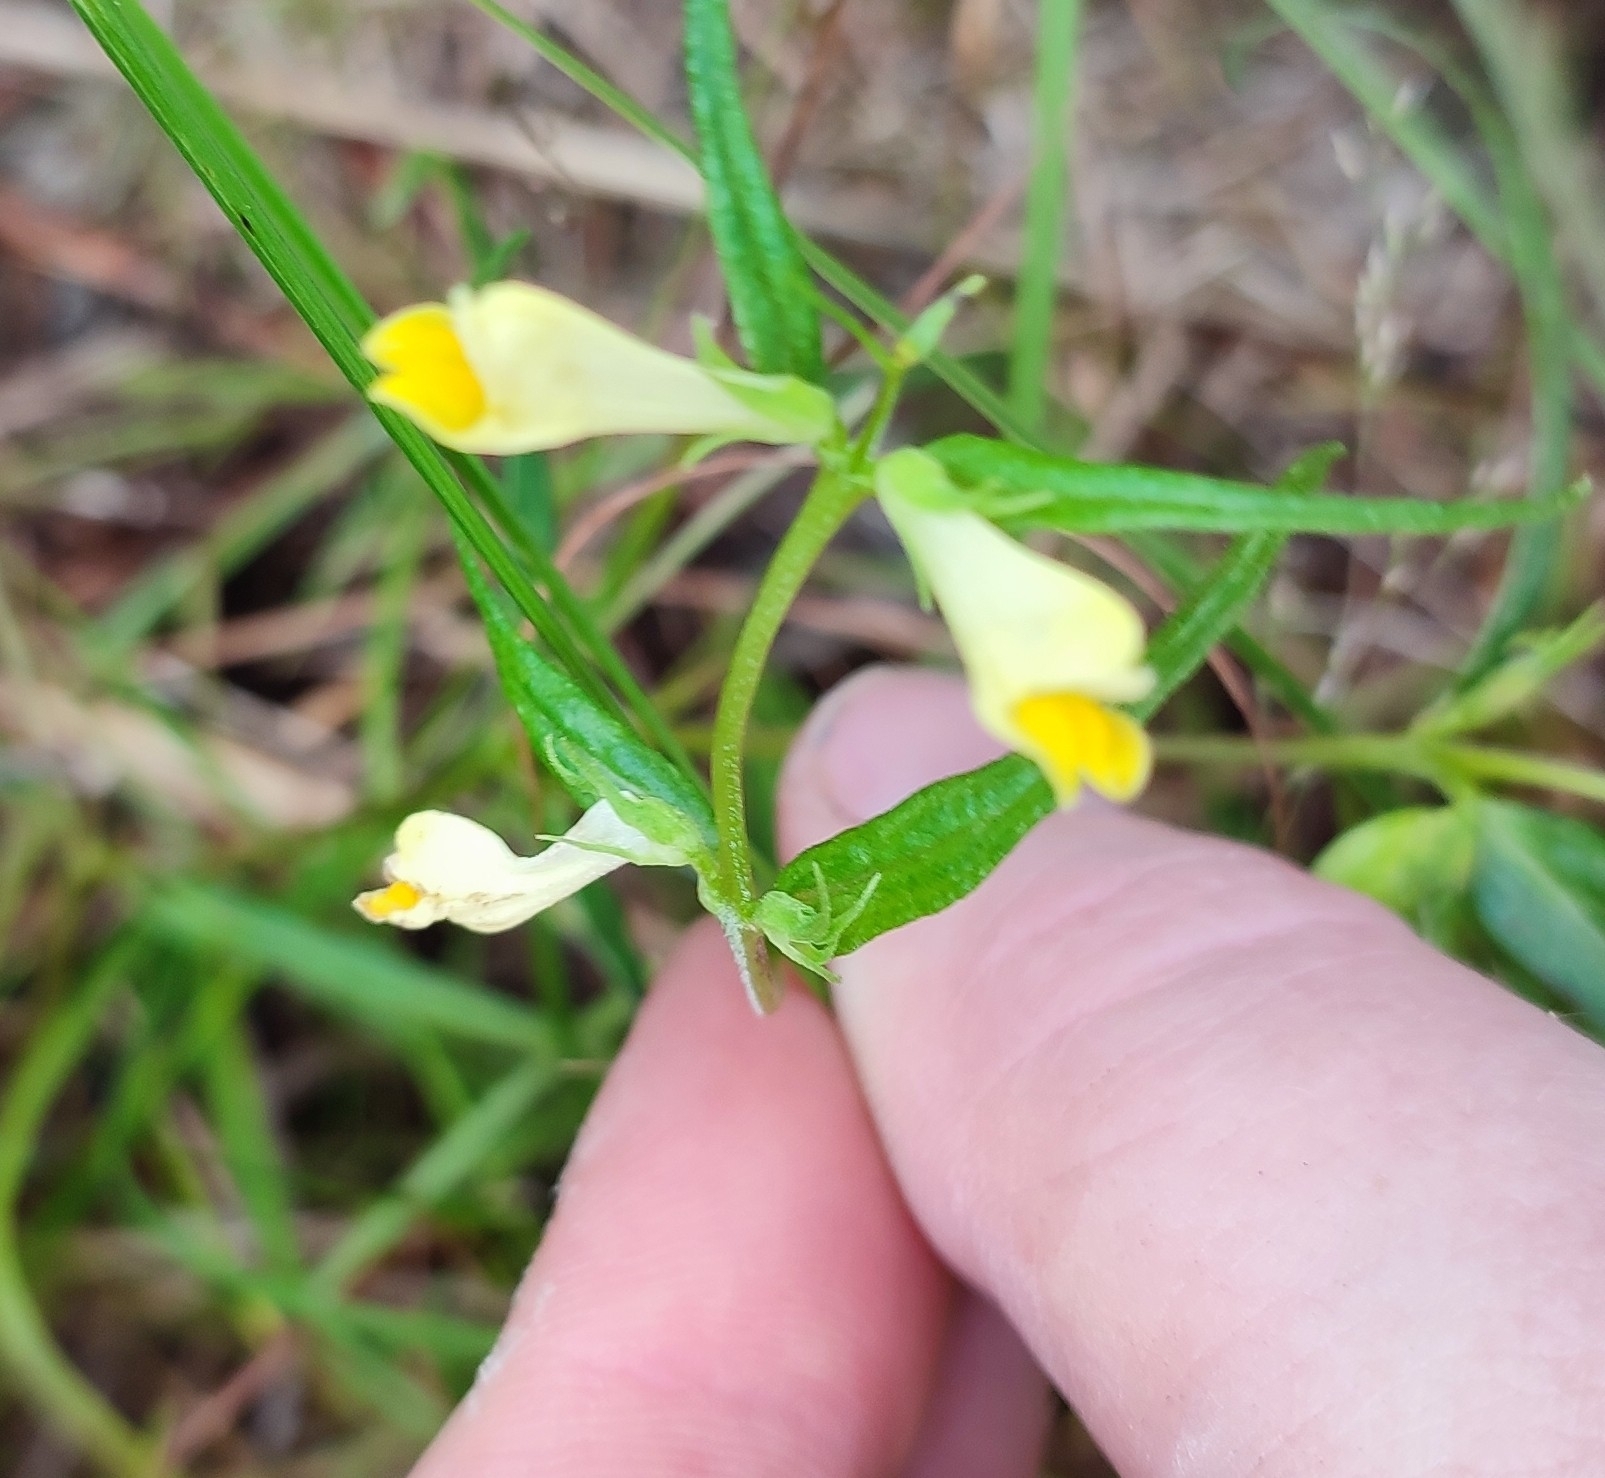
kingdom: Plantae
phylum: Tracheophyta
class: Magnoliopsida
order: Lamiales
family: Orobanchaceae
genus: Melampyrum
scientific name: Melampyrum pratense
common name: Common cow-wheat
